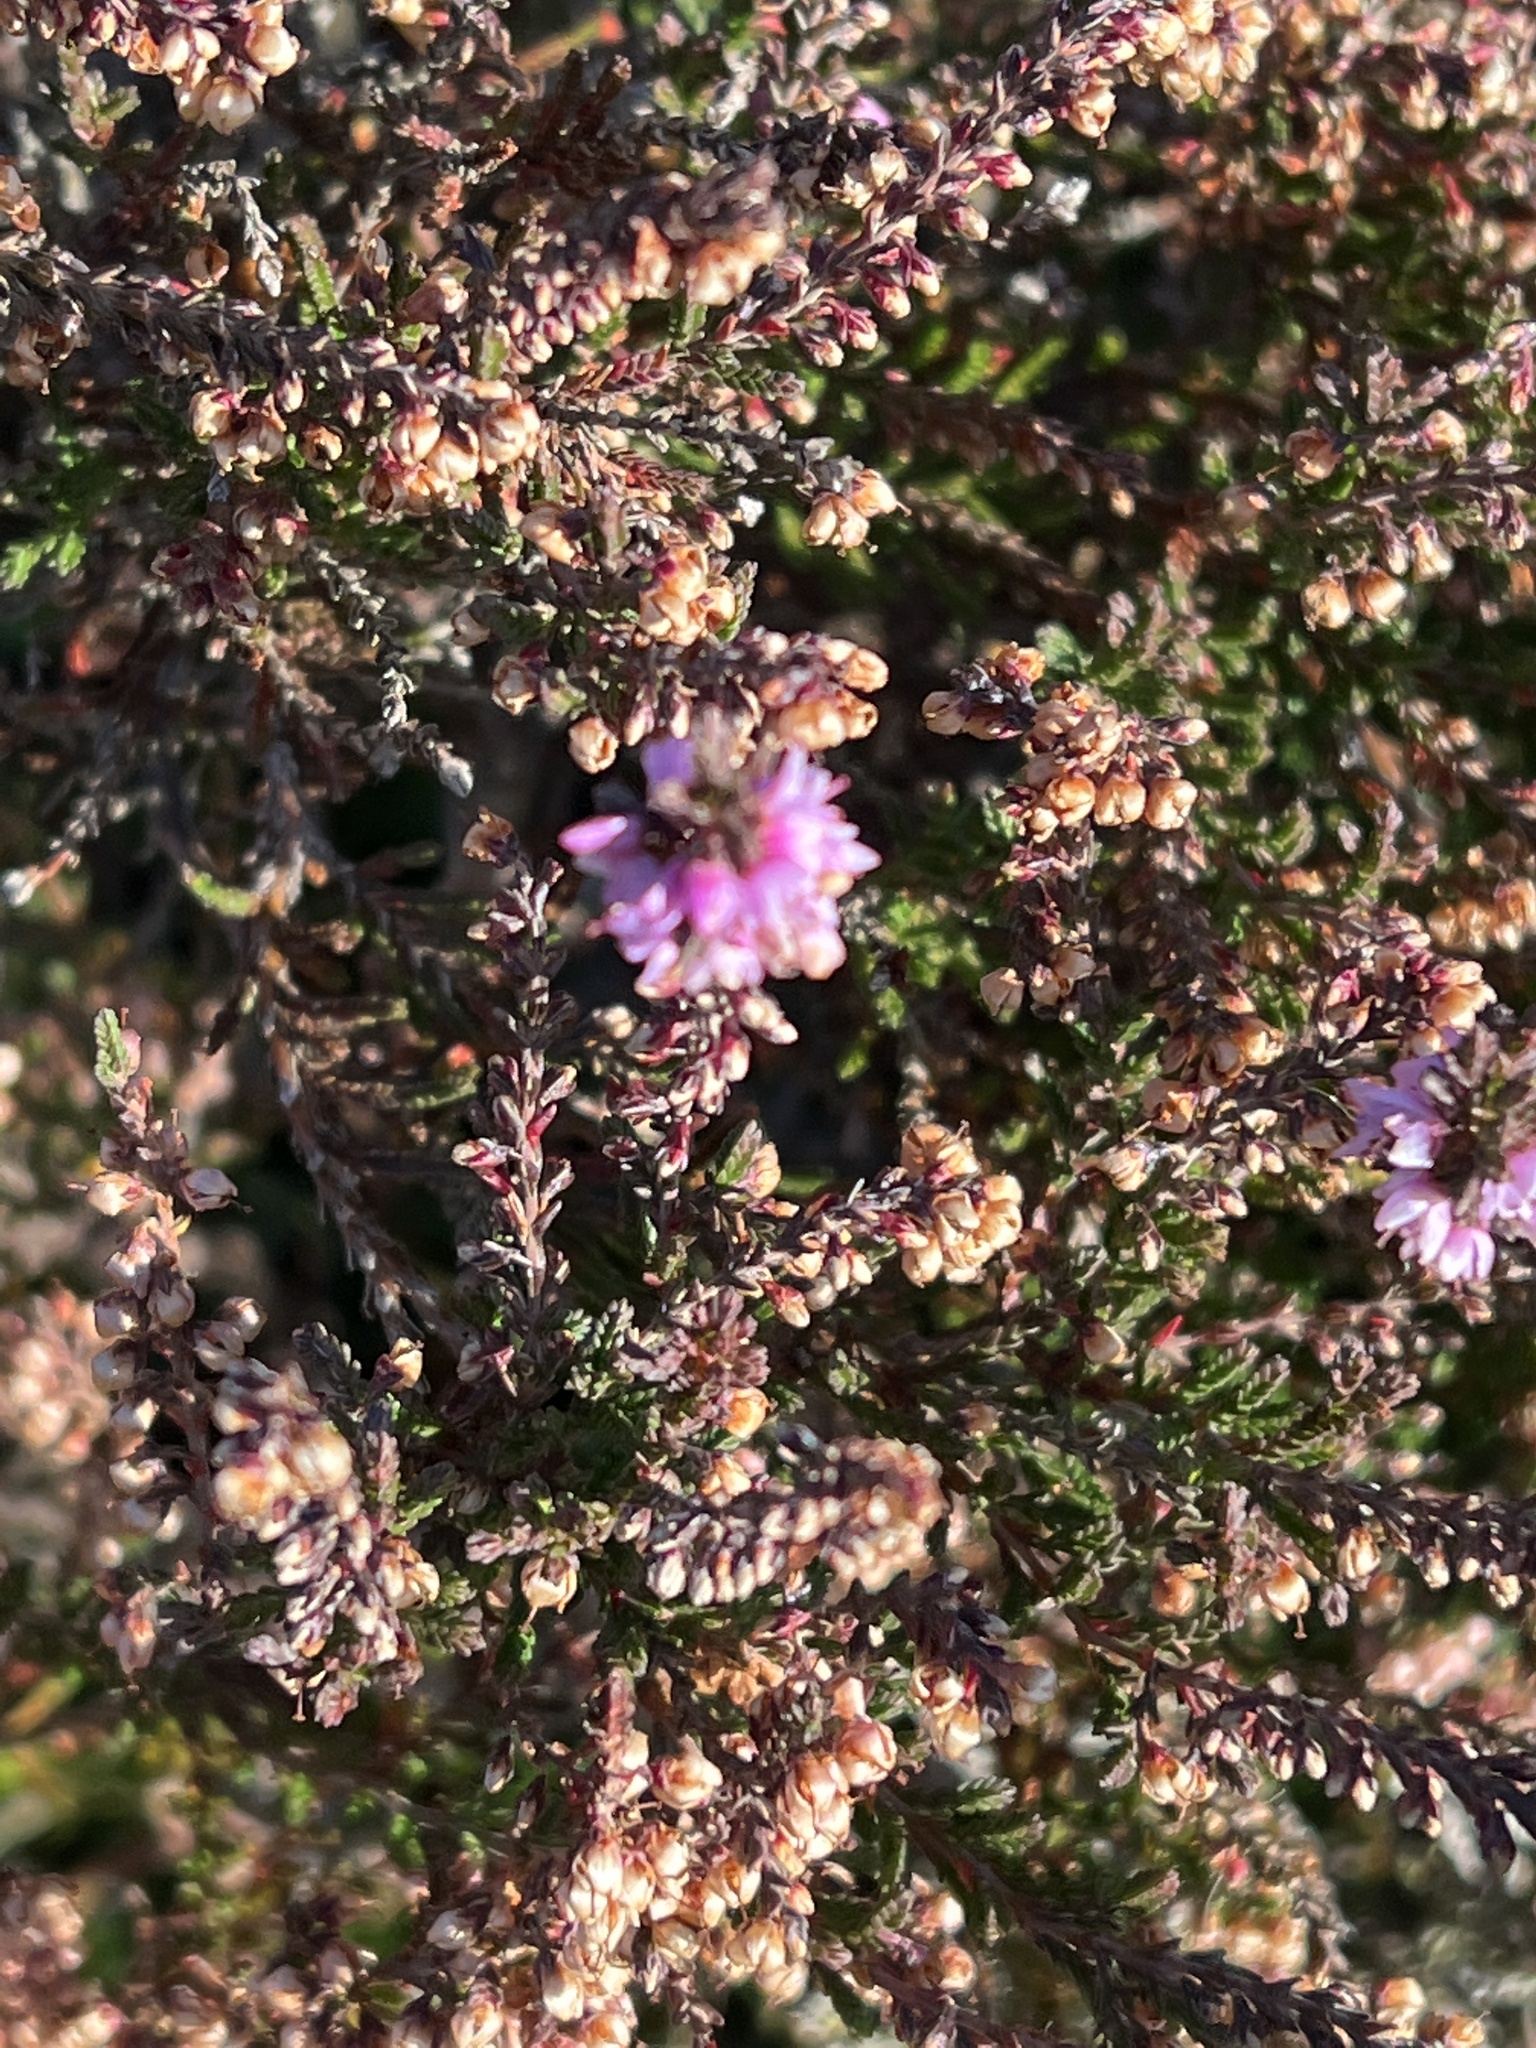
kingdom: Plantae
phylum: Tracheophyta
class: Magnoliopsida
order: Ericales
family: Ericaceae
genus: Calluna
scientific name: Calluna vulgaris
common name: Heather
